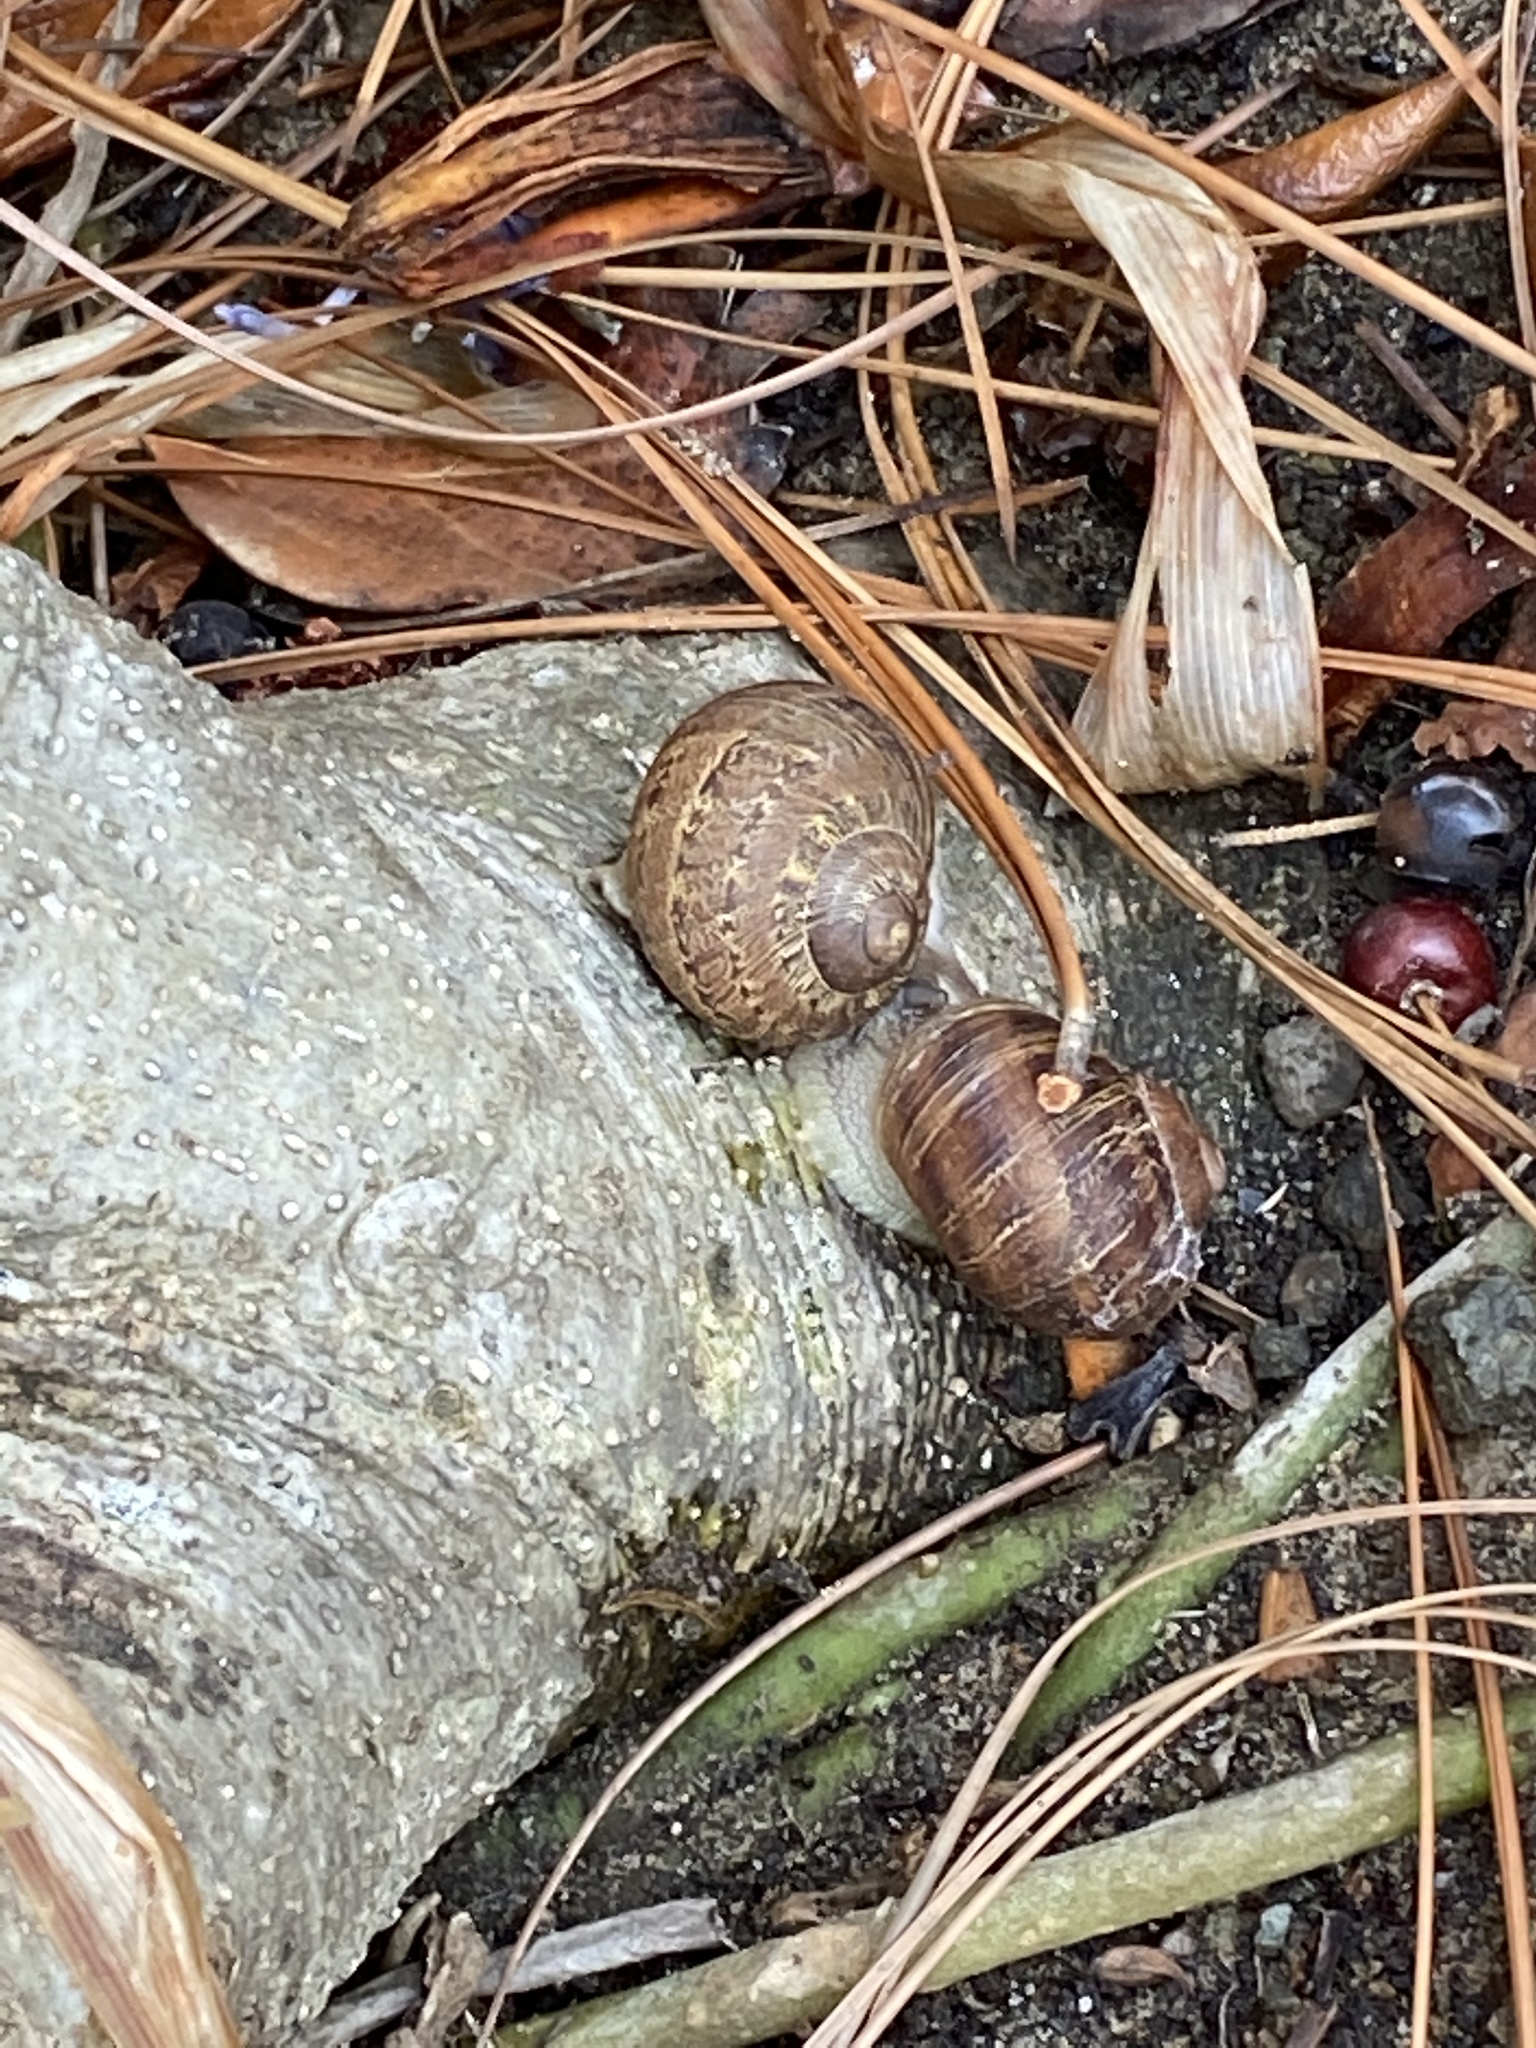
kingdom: Animalia
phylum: Mollusca
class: Gastropoda
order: Stylommatophora
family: Helicidae
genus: Cornu
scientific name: Cornu aspersum
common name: Brown garden snail
